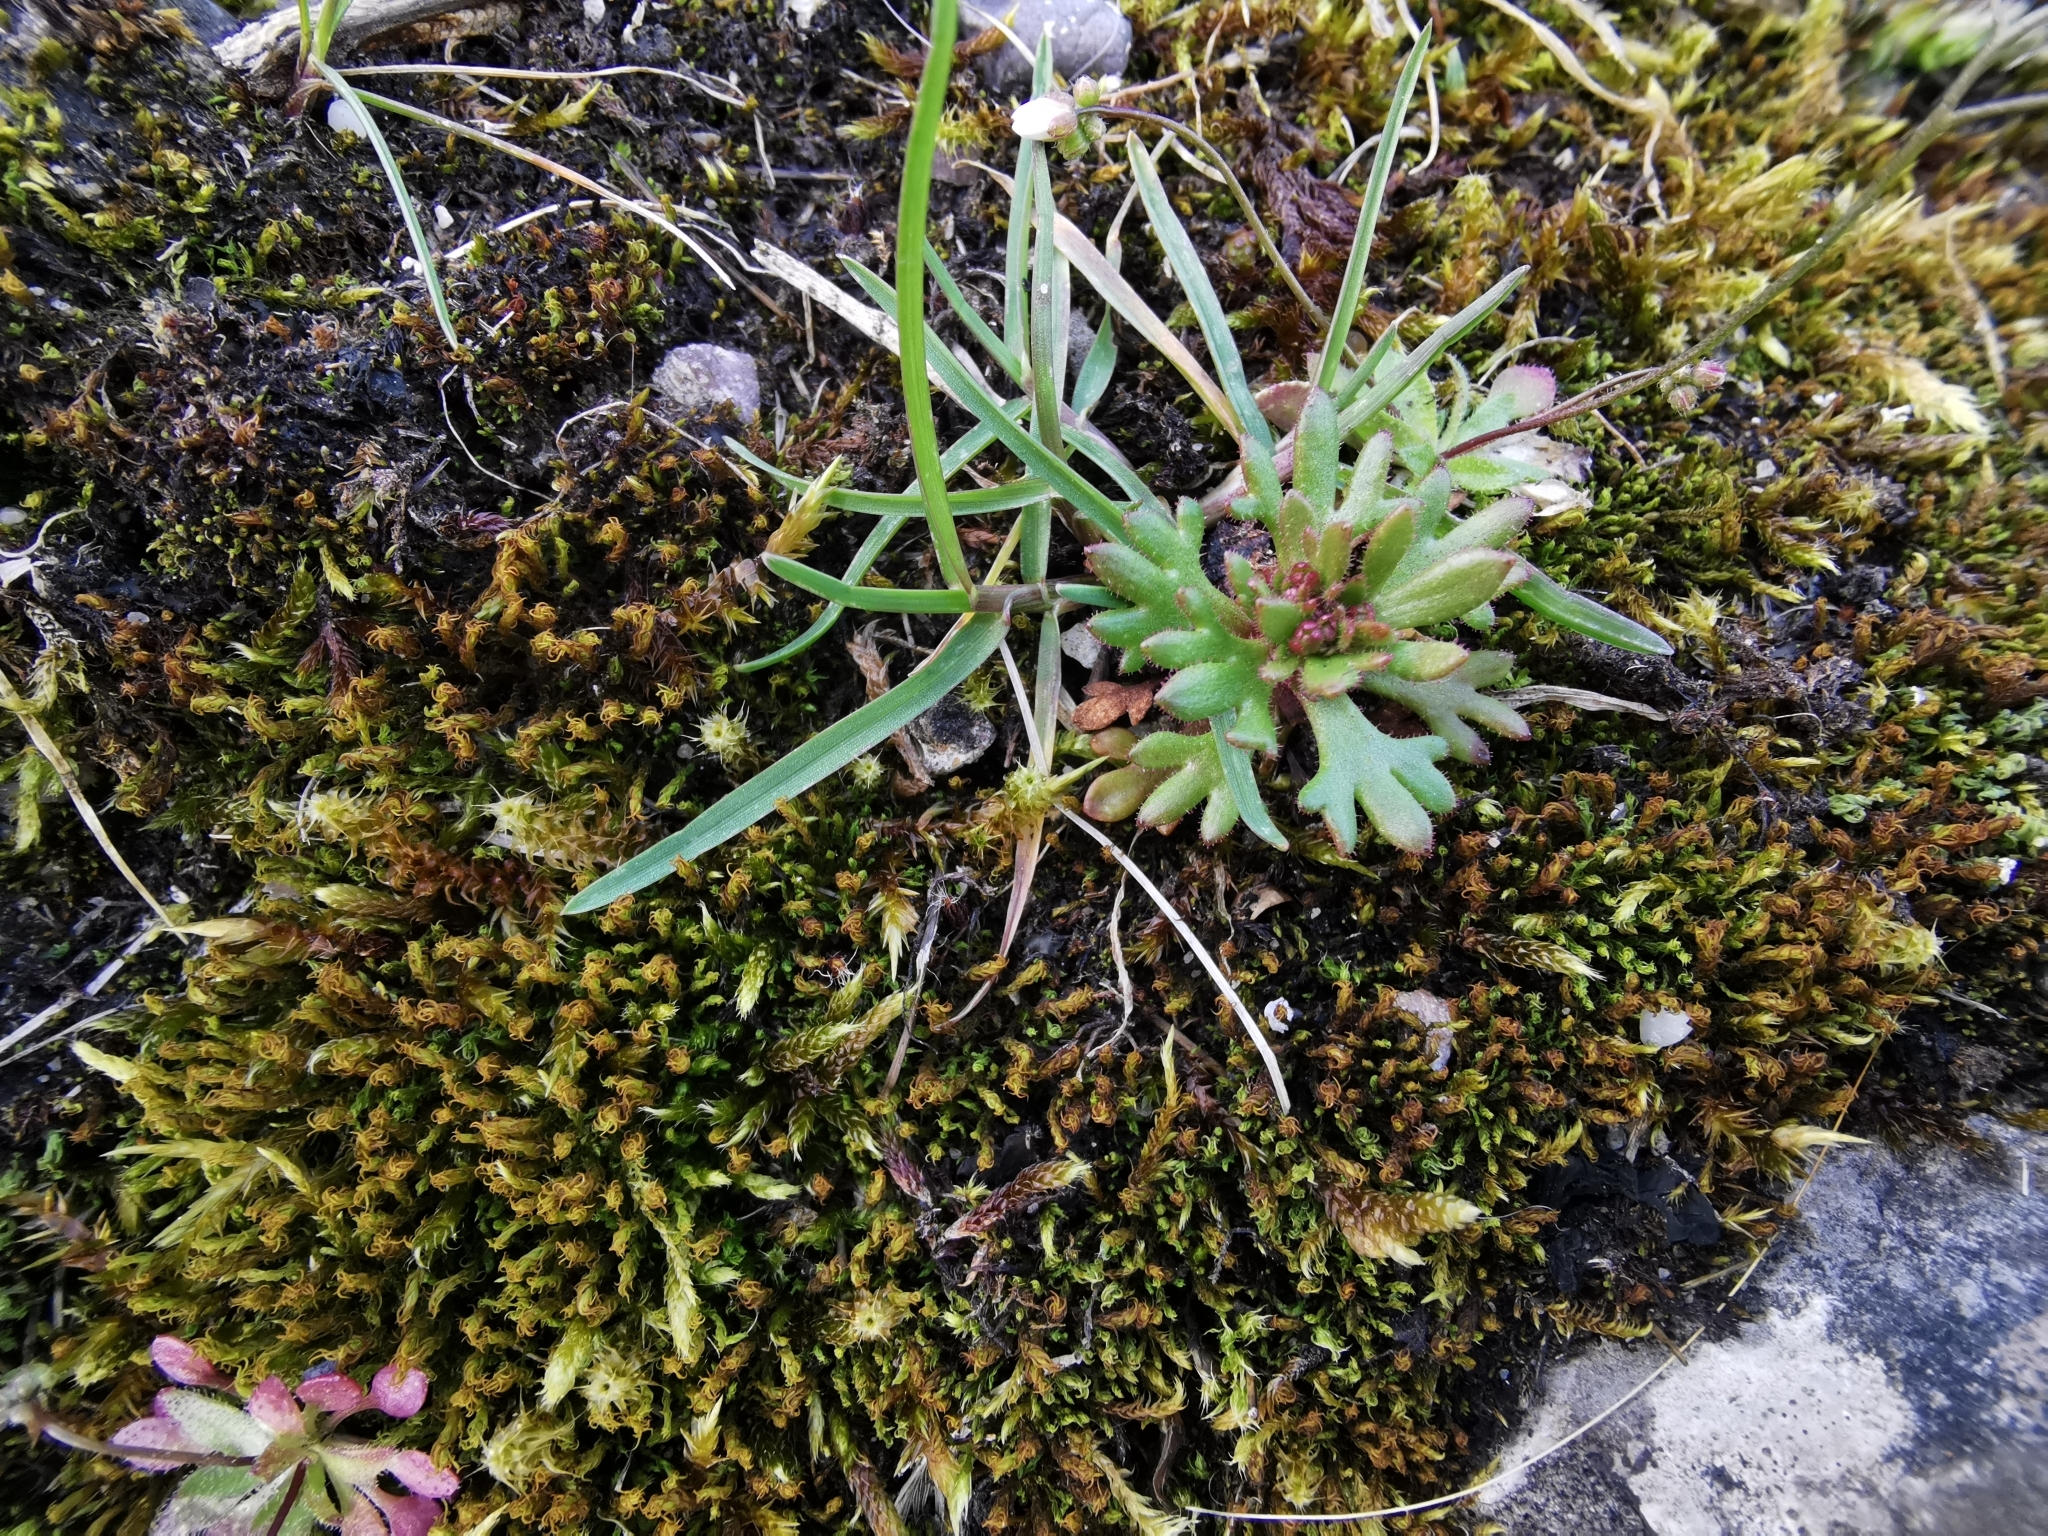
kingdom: Plantae
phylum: Tracheophyta
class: Magnoliopsida
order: Saxifragales
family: Saxifragaceae
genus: Saxifraga
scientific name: Saxifraga tridactylites
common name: Rue-leaved saxifrage
